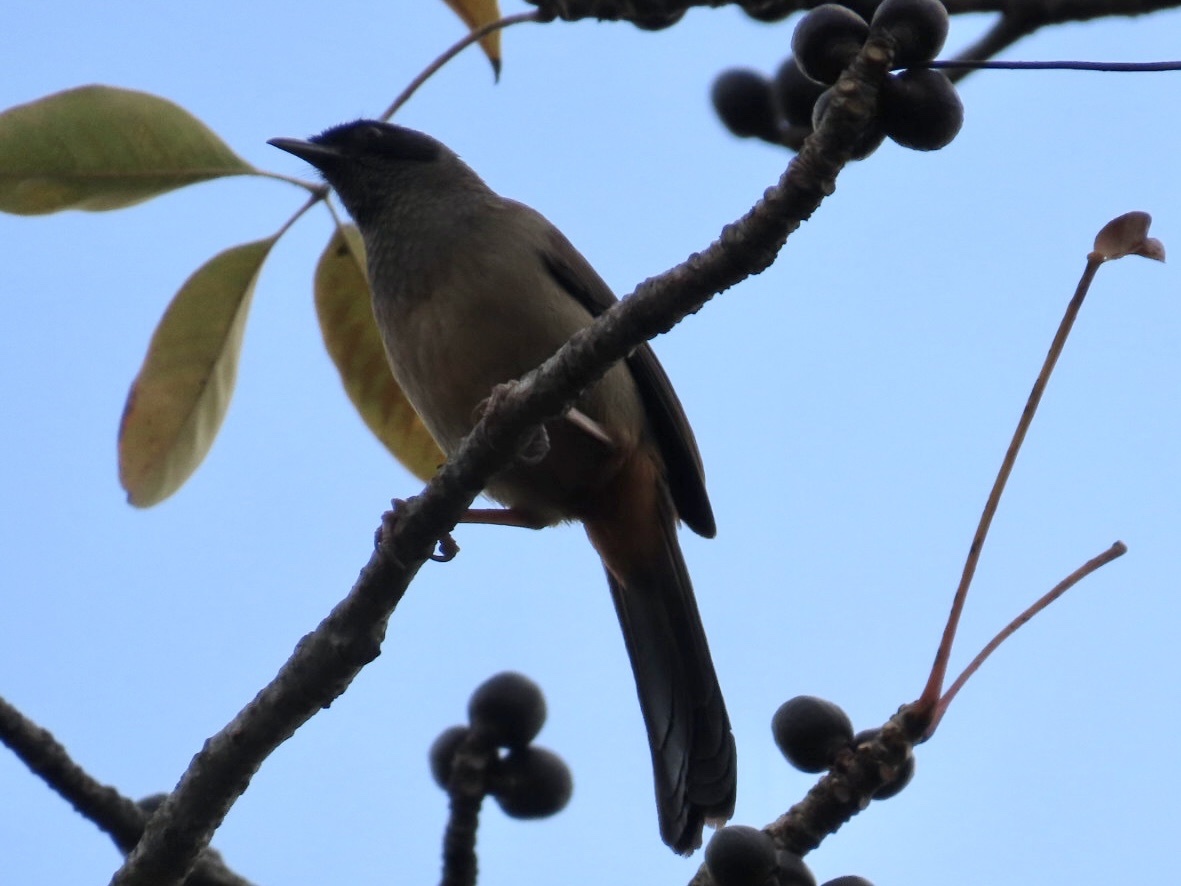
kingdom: Animalia
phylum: Chordata
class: Aves
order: Passeriformes
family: Leiothrichidae
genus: Garrulax
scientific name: Garrulax perspicillatus
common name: Masked laughingthrush
